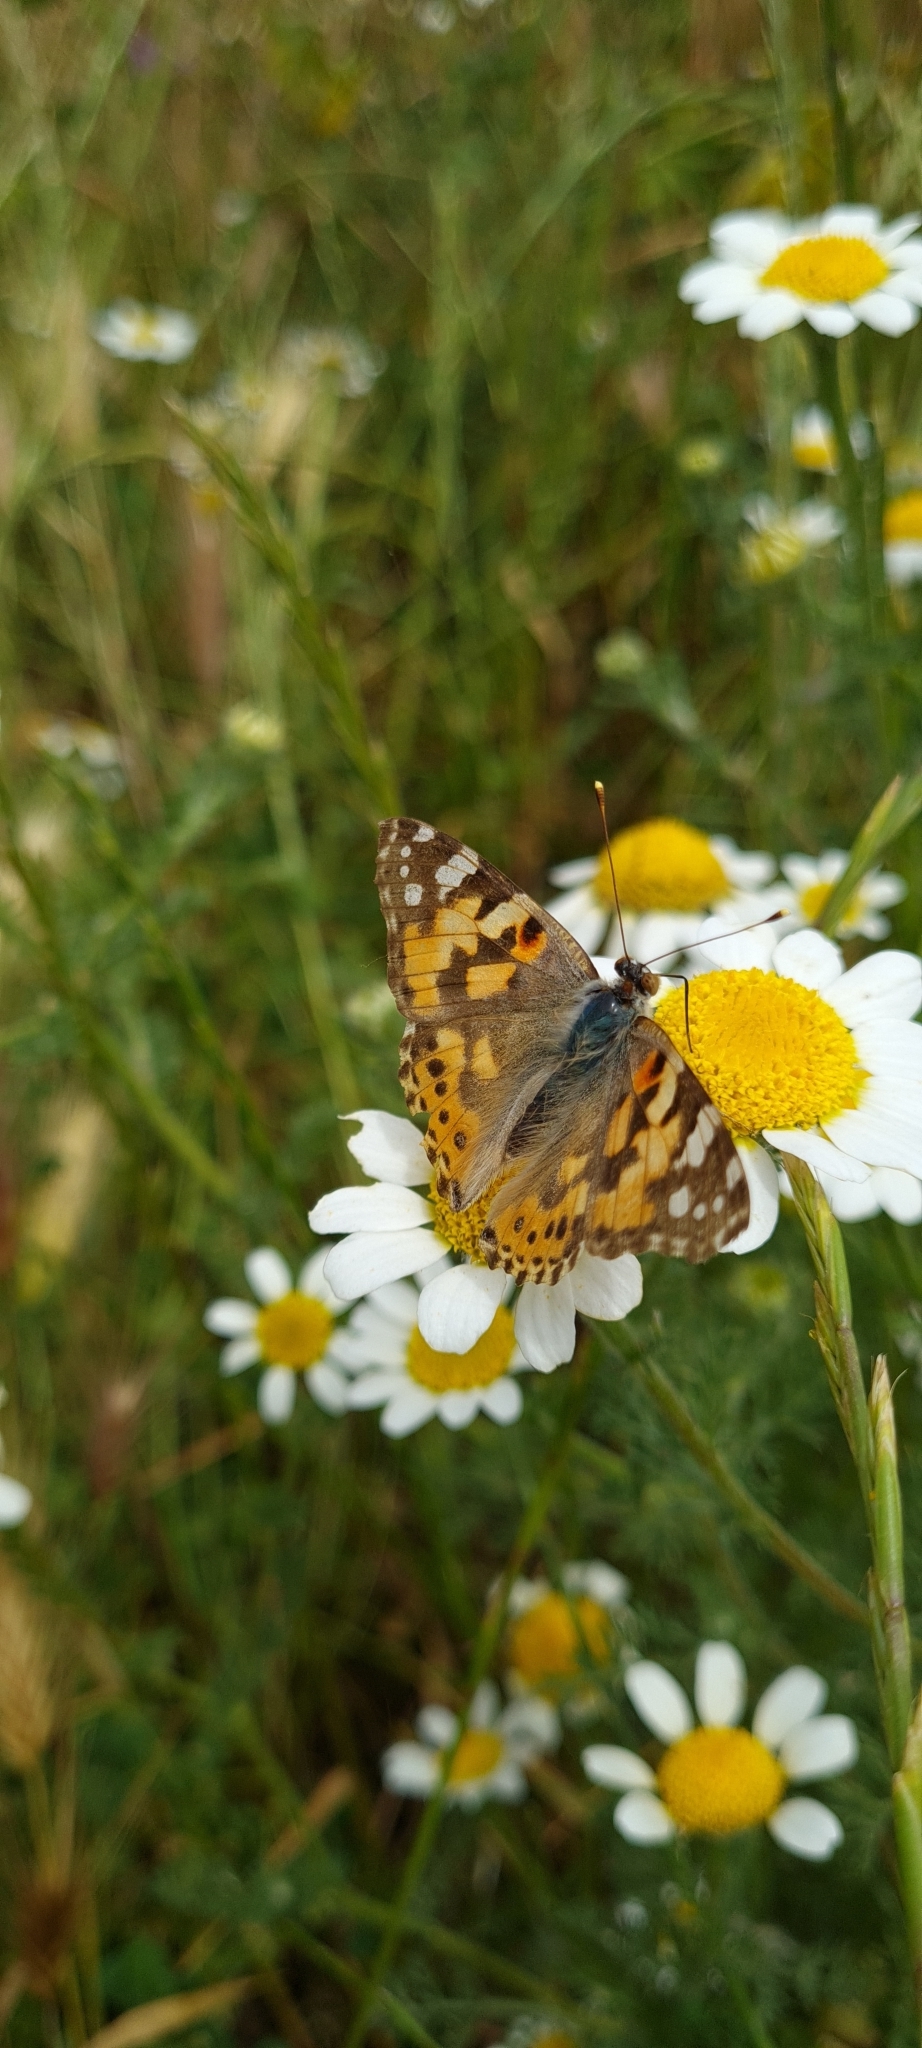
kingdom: Animalia
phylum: Arthropoda
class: Insecta
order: Lepidoptera
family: Nymphalidae
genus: Vanessa
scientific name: Vanessa cardui
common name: Painted lady
